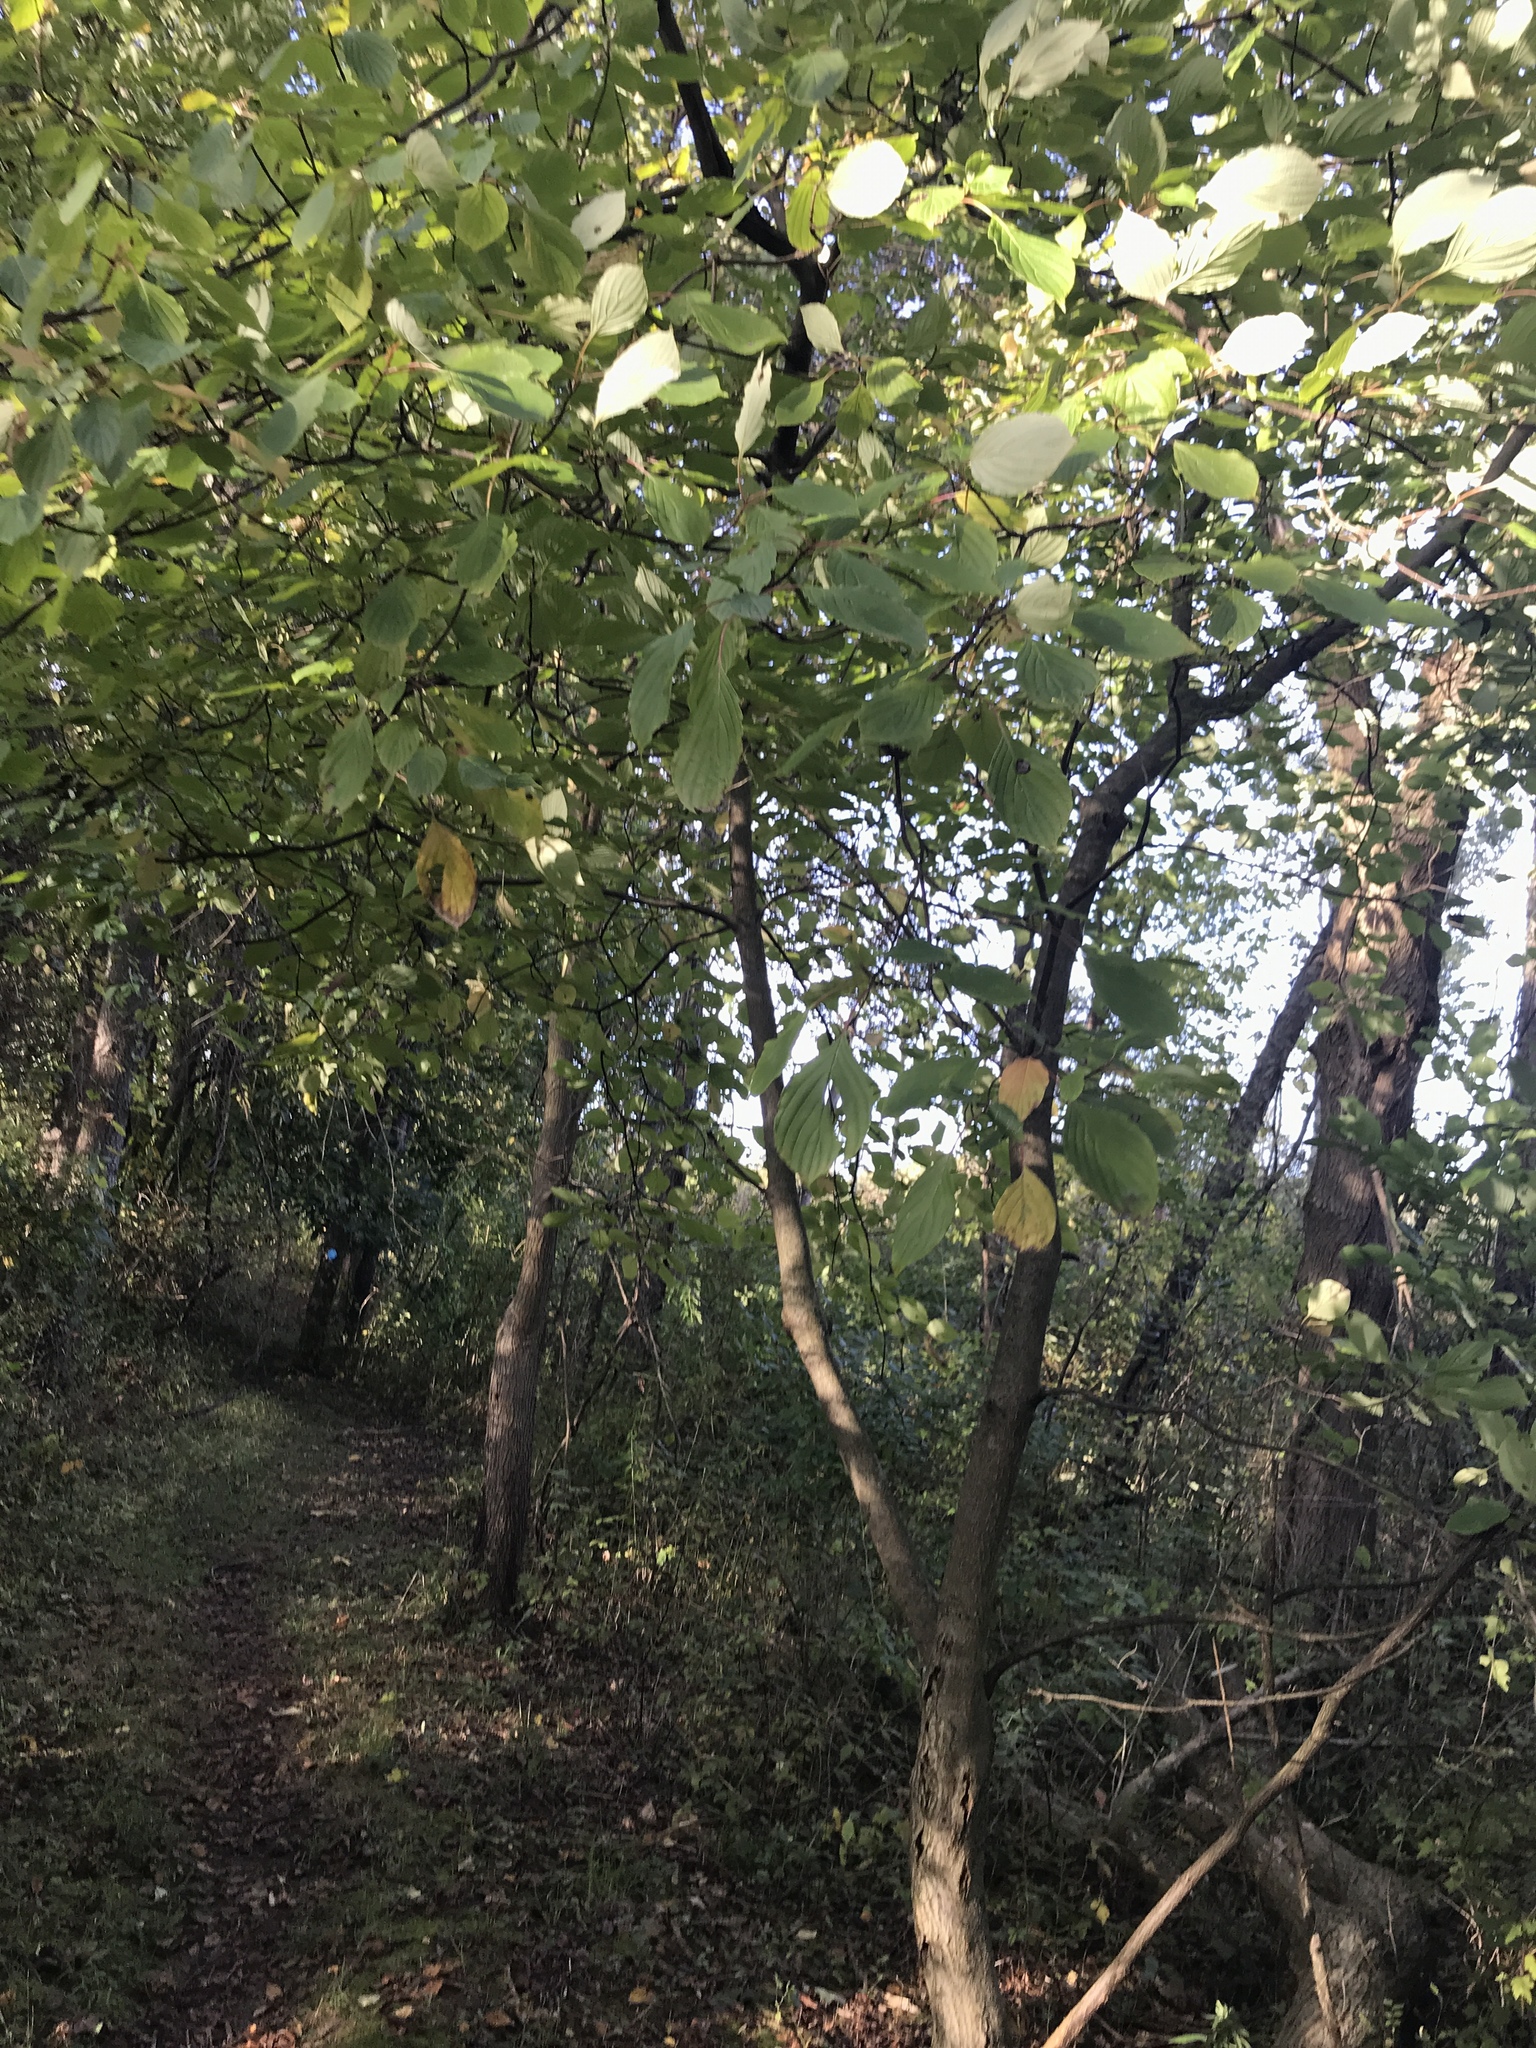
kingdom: Plantae
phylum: Tracheophyta
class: Magnoliopsida
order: Cornales
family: Cornaceae
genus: Cornus
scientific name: Cornus alternifolia
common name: Pagoda dogwood
